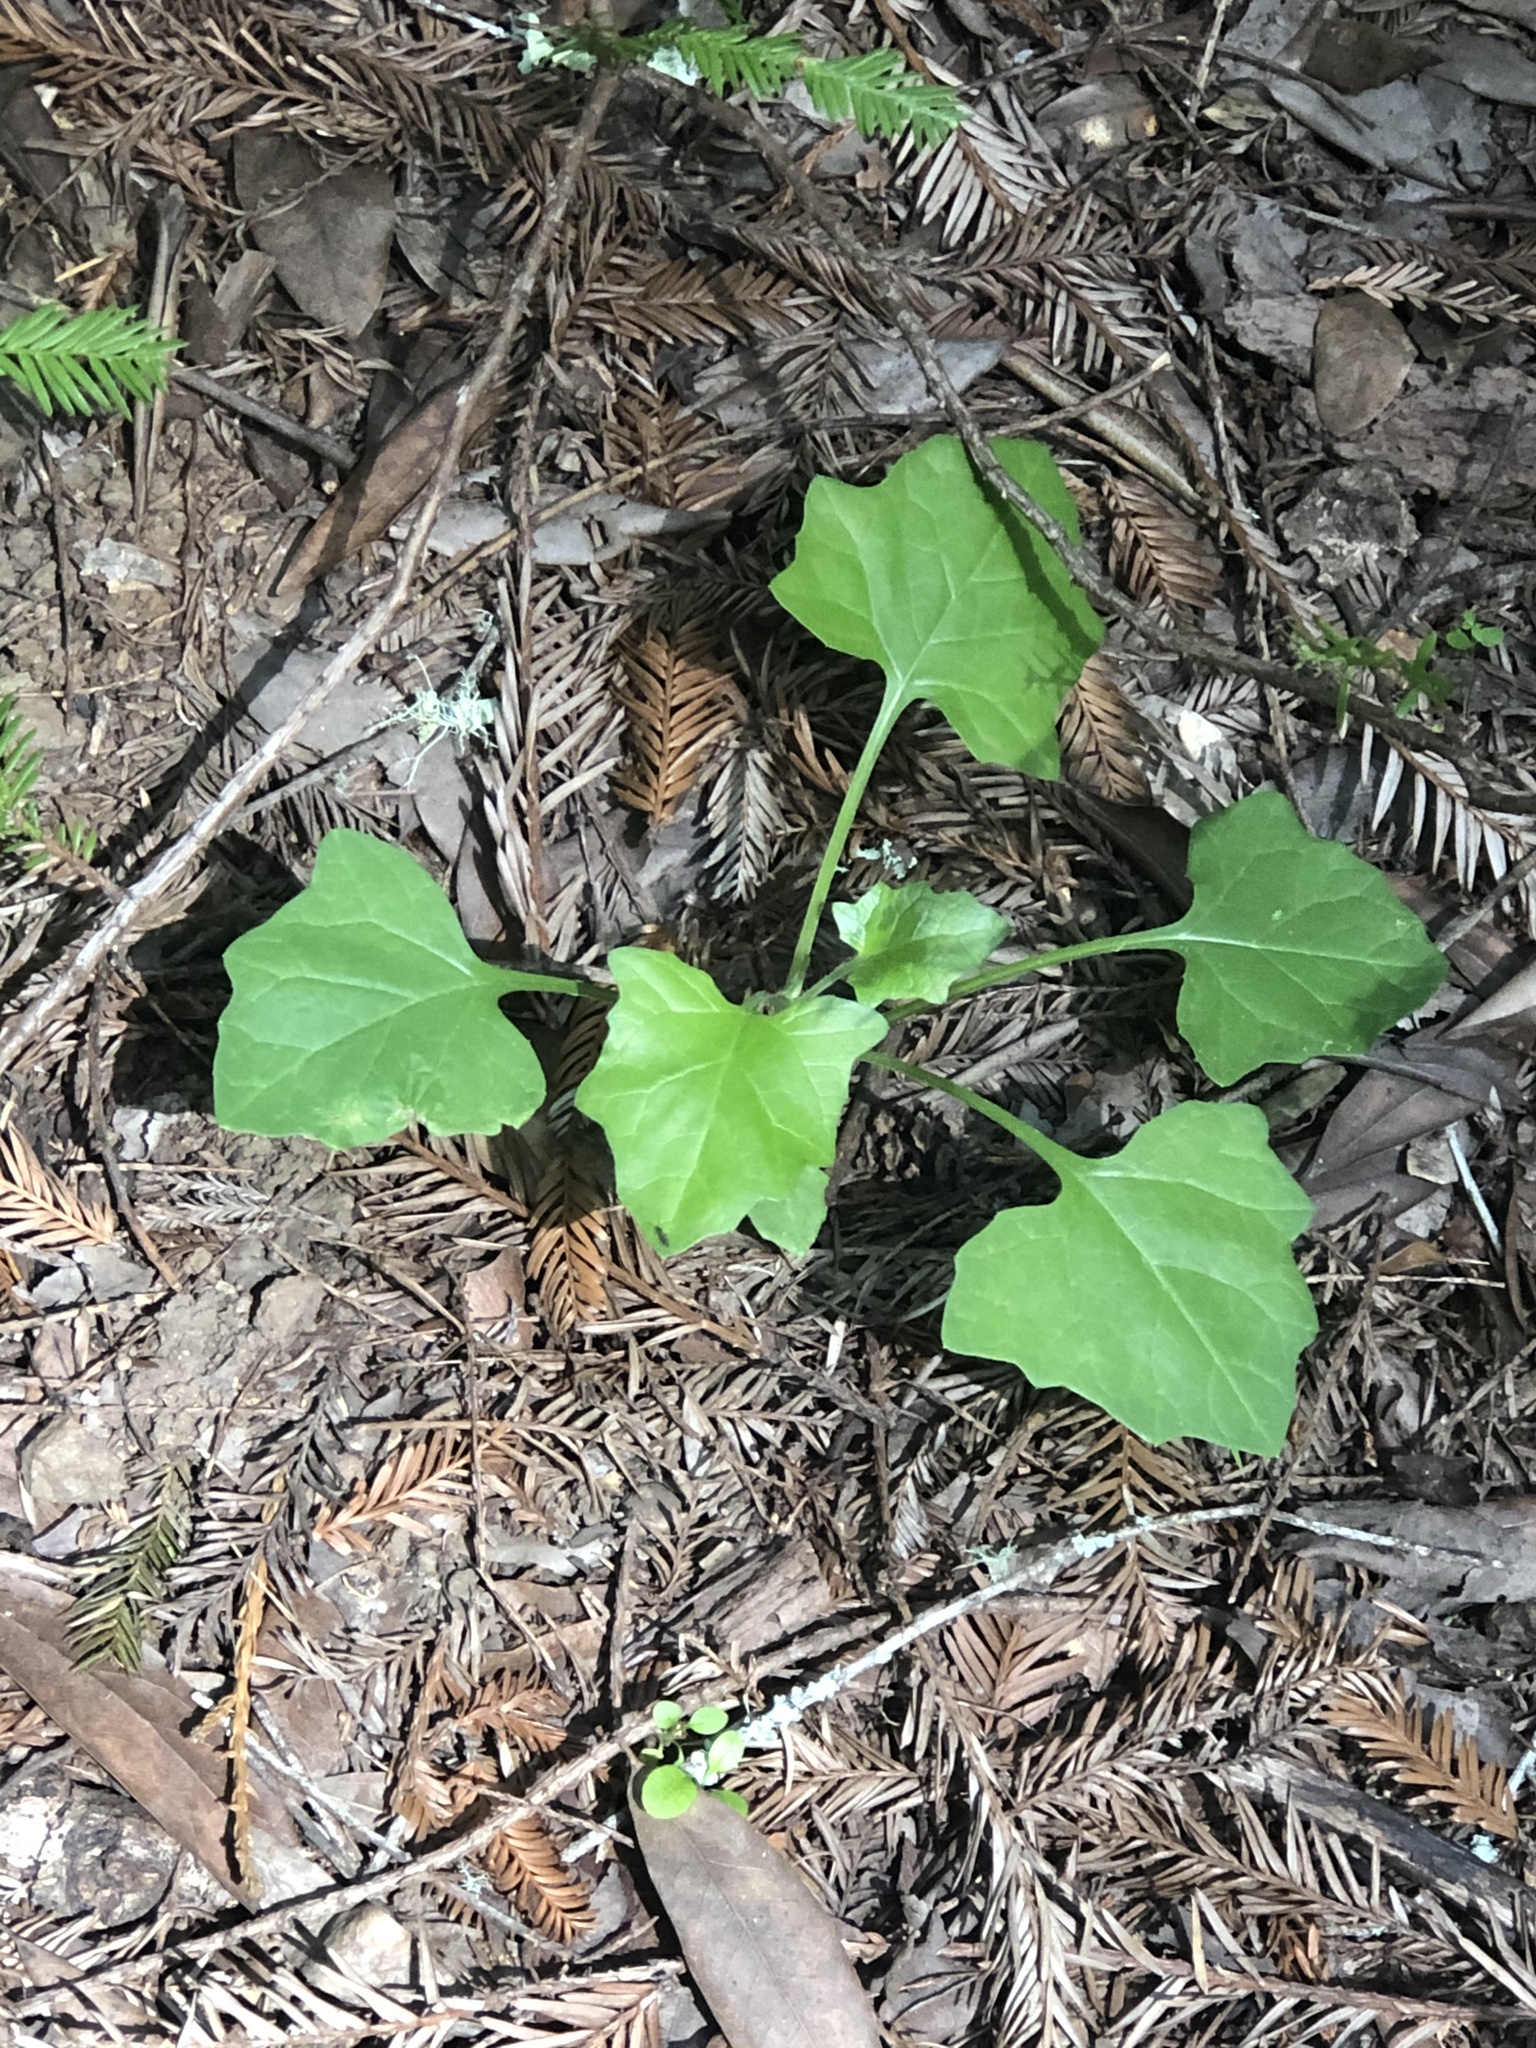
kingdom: Plantae
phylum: Tracheophyta
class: Magnoliopsida
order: Asterales
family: Asteraceae
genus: Adenocaulon
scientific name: Adenocaulon bicolor
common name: Trailplant
